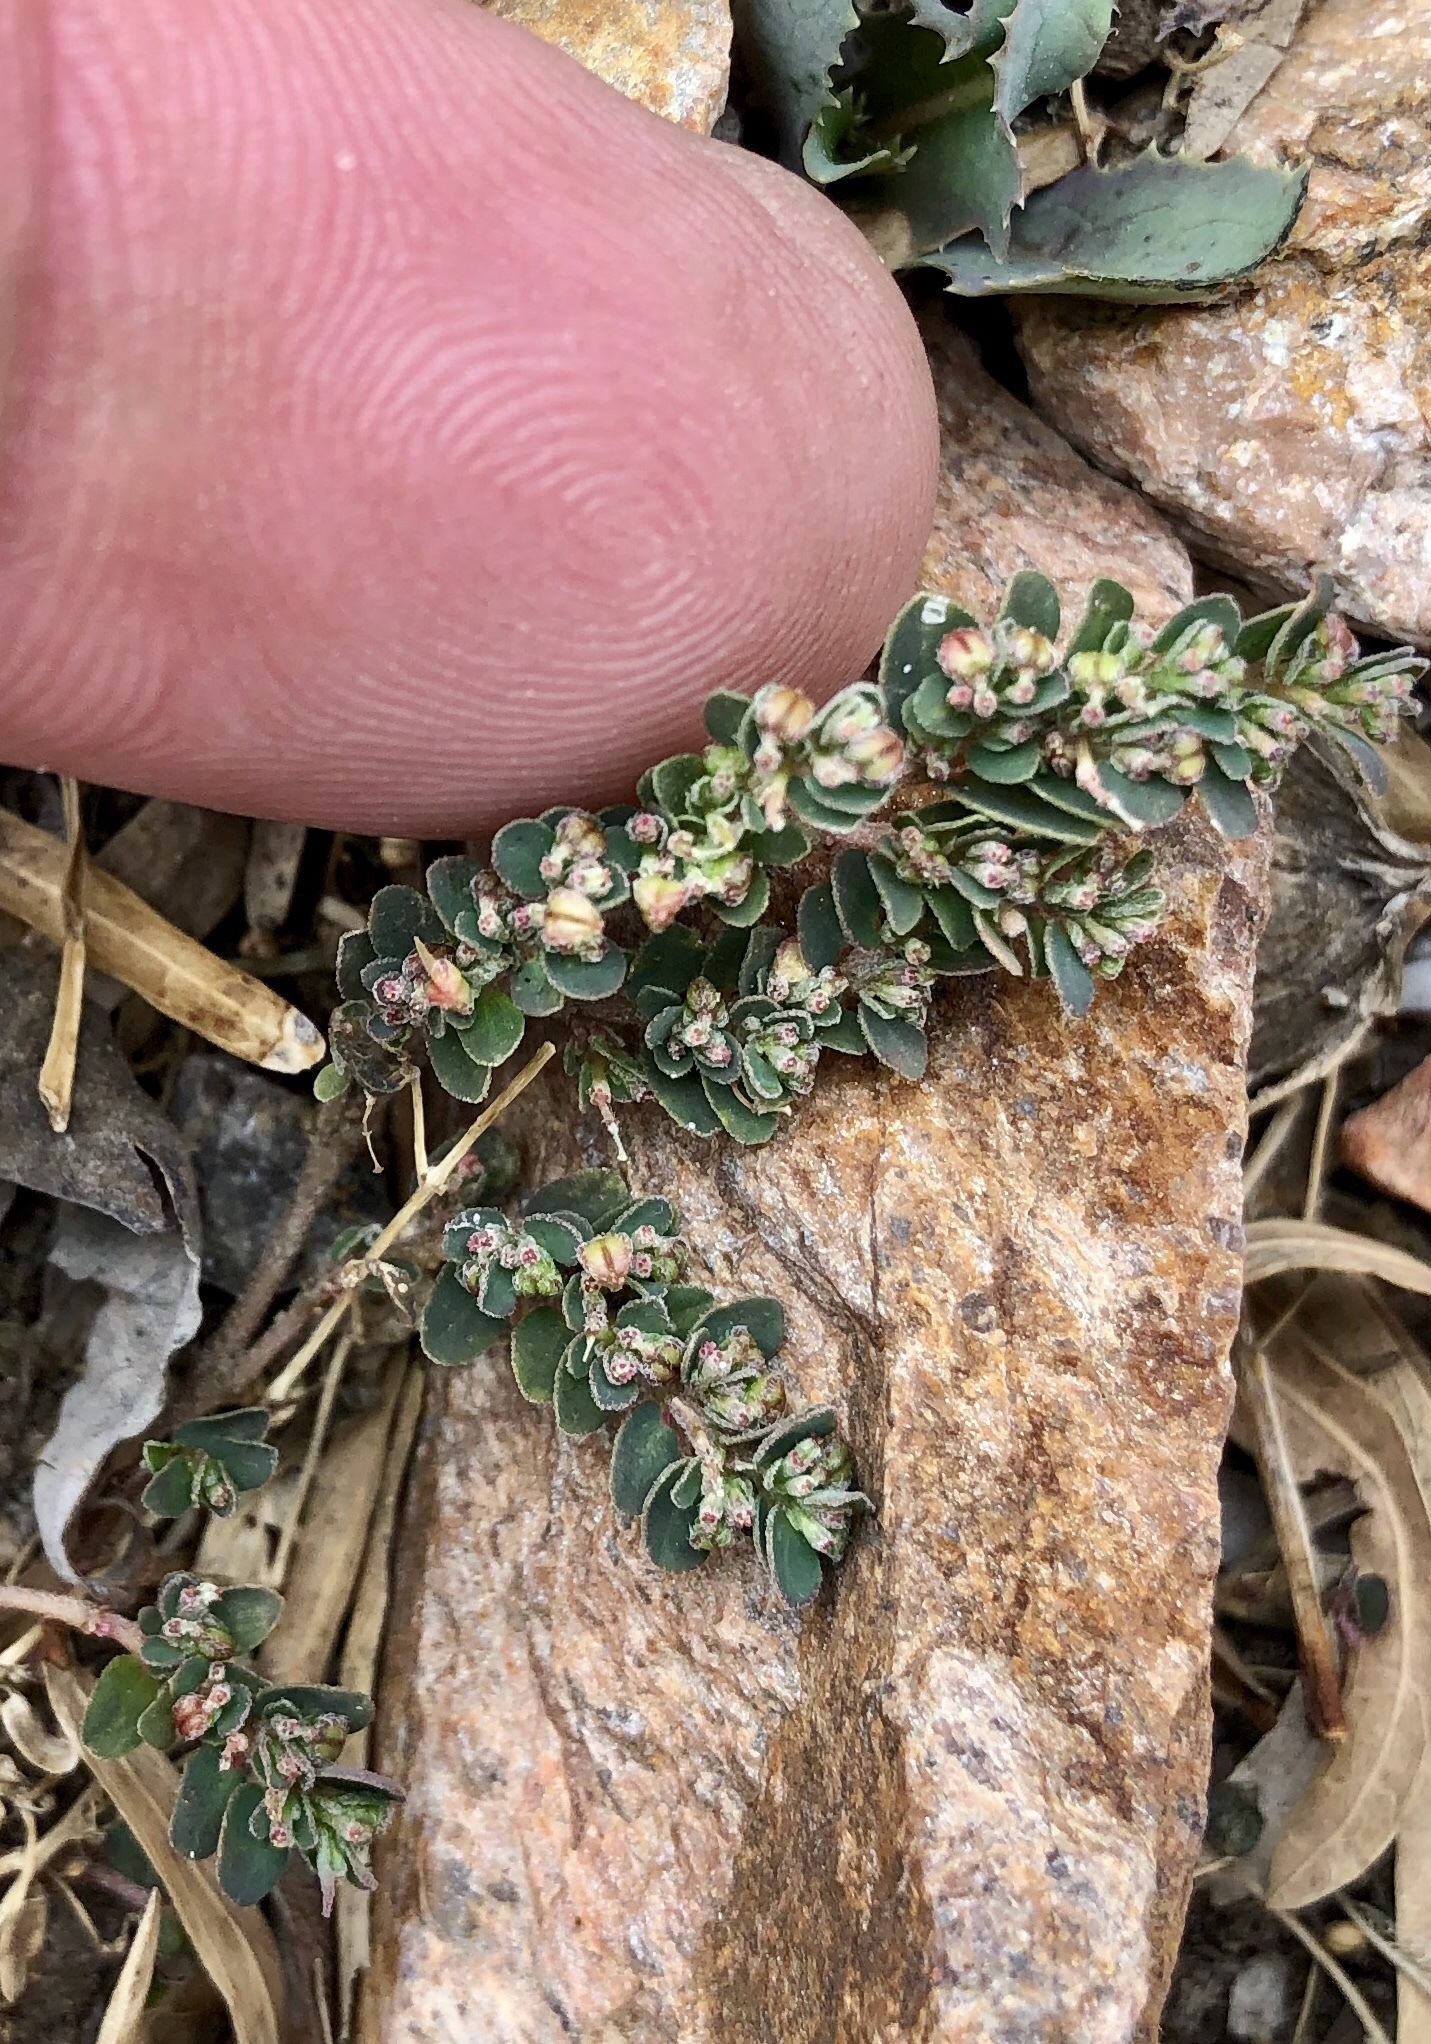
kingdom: Plantae
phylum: Tracheophyta
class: Magnoliopsida
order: Malpighiales
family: Euphorbiaceae
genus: Euphorbia
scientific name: Euphorbia prostrata
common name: Prostrate sandmat
